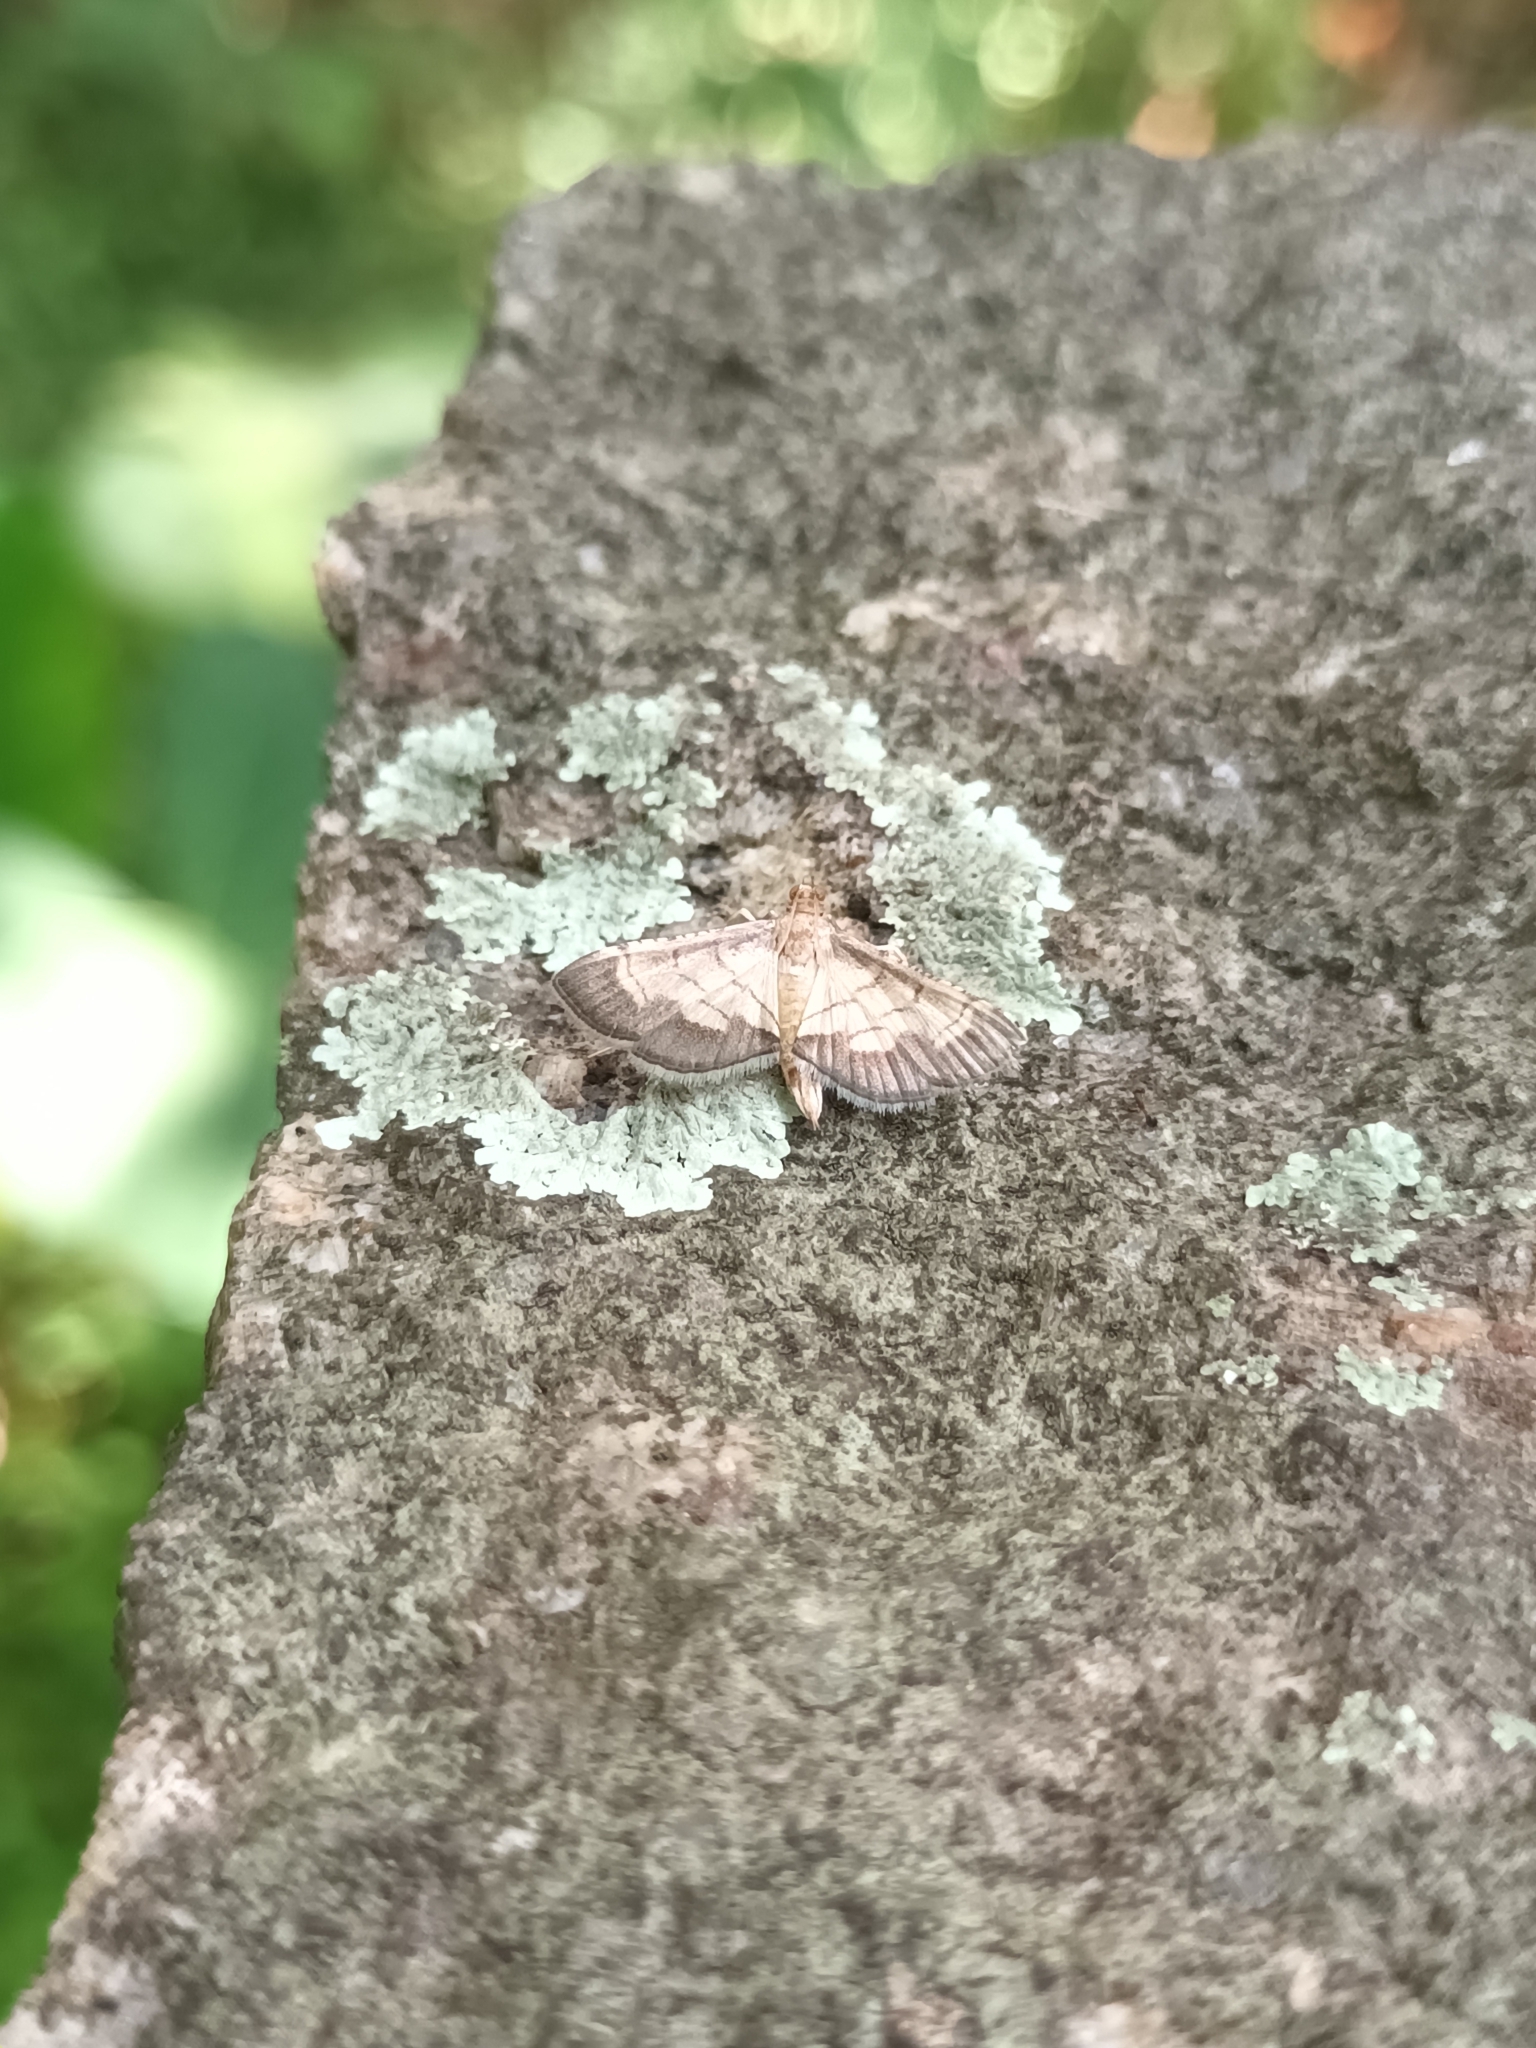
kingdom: Animalia
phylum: Arthropoda
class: Insecta
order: Lepidoptera
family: Crambidae
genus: Cnaphalocrocis
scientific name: Cnaphalocrocis trebiusalis
